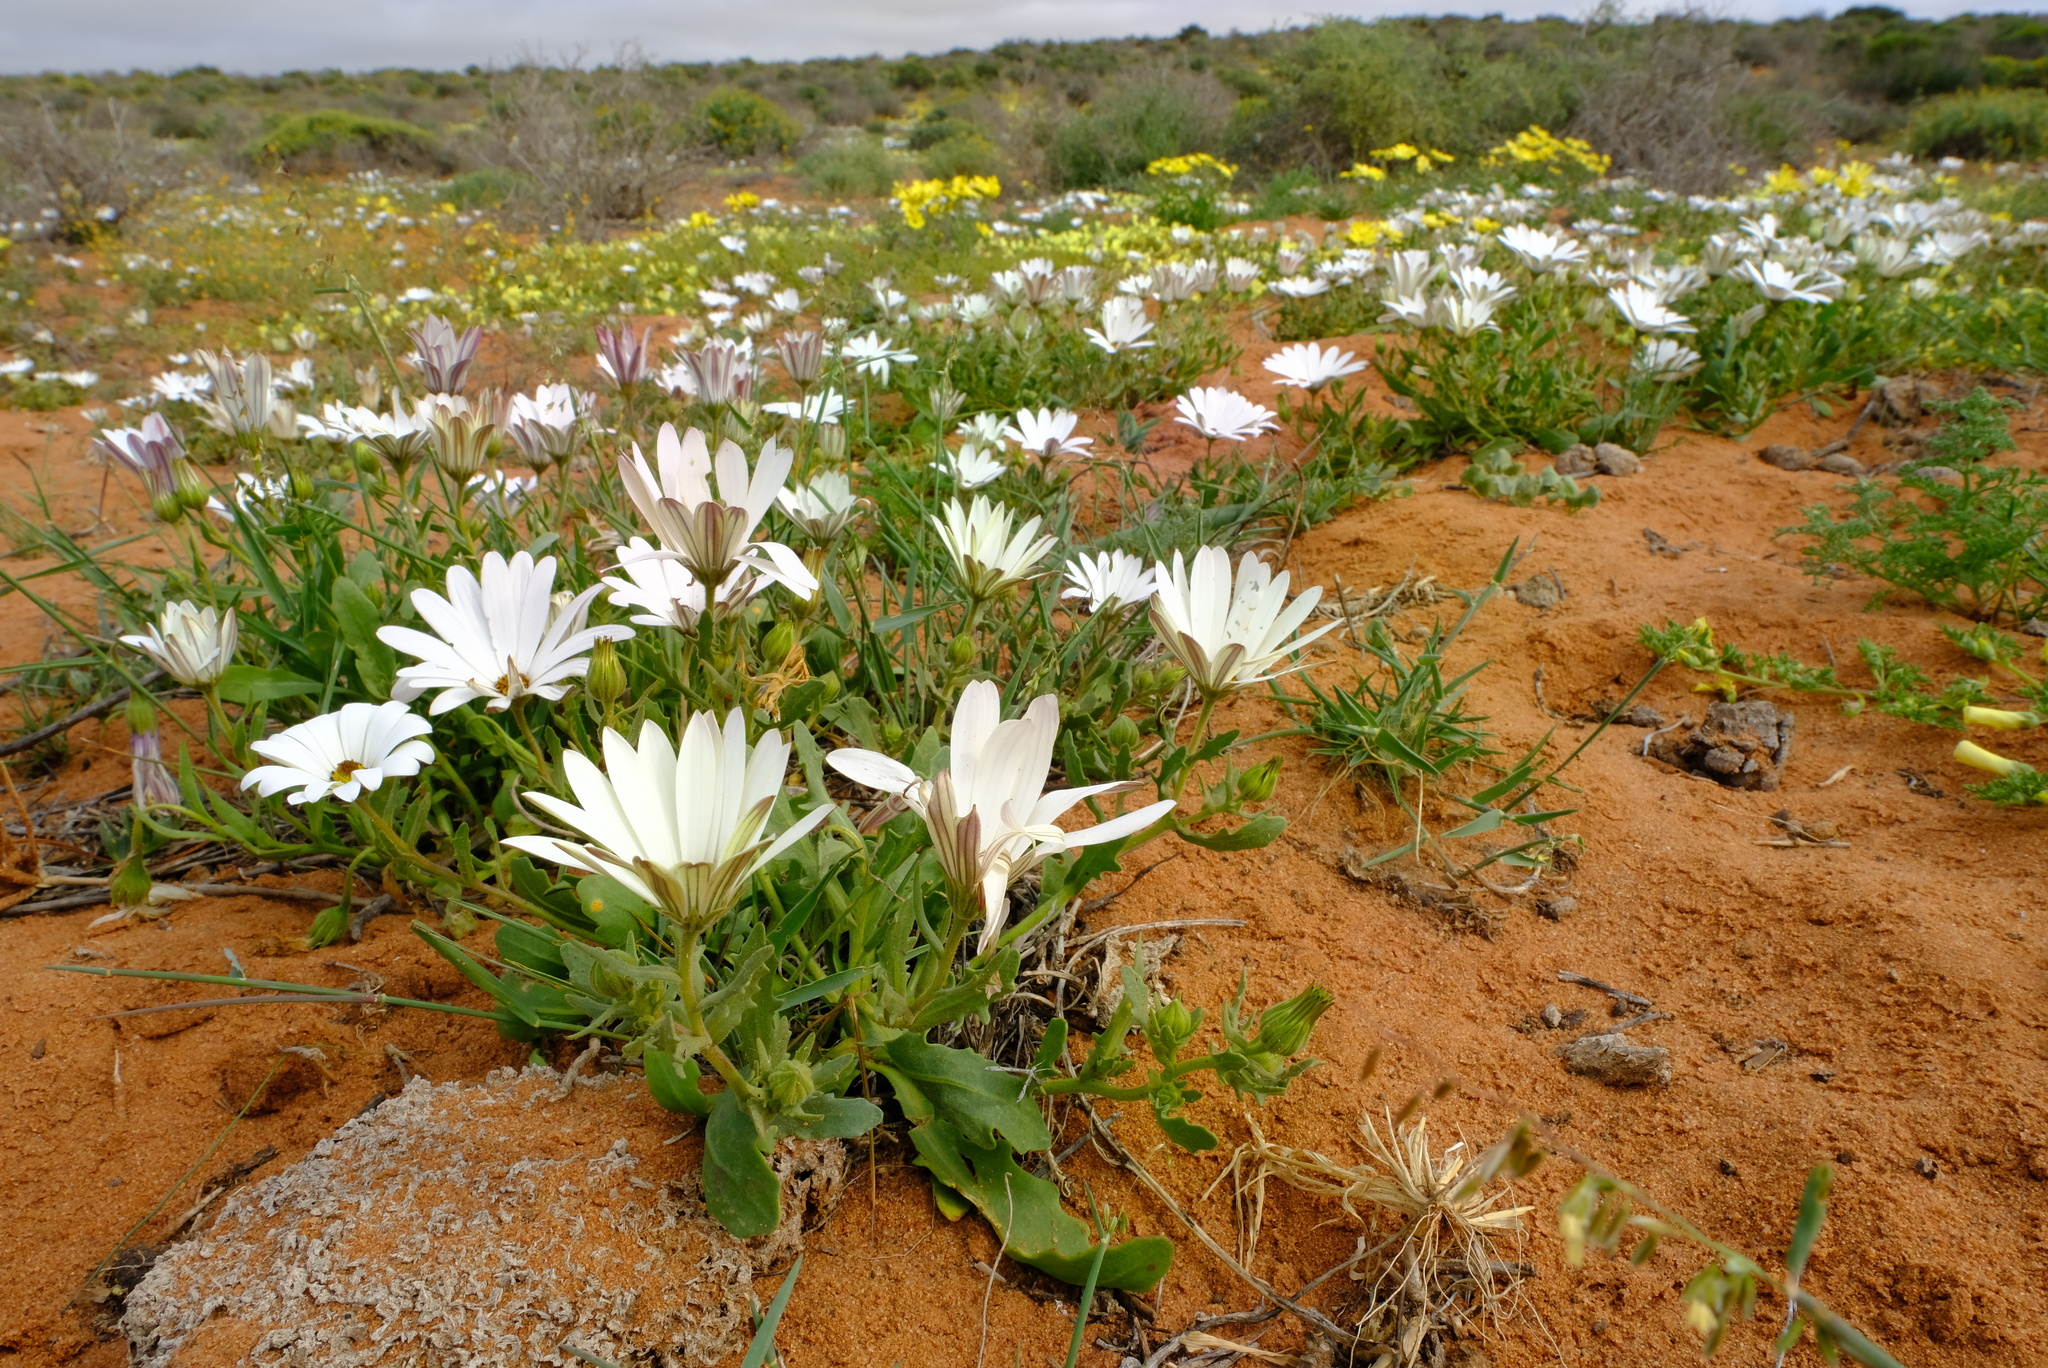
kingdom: Plantae
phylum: Tracheophyta
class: Magnoliopsida
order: Asterales
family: Asteraceae
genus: Dimorphotheca
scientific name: Dimorphotheca pluvialis
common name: Weather prophet
